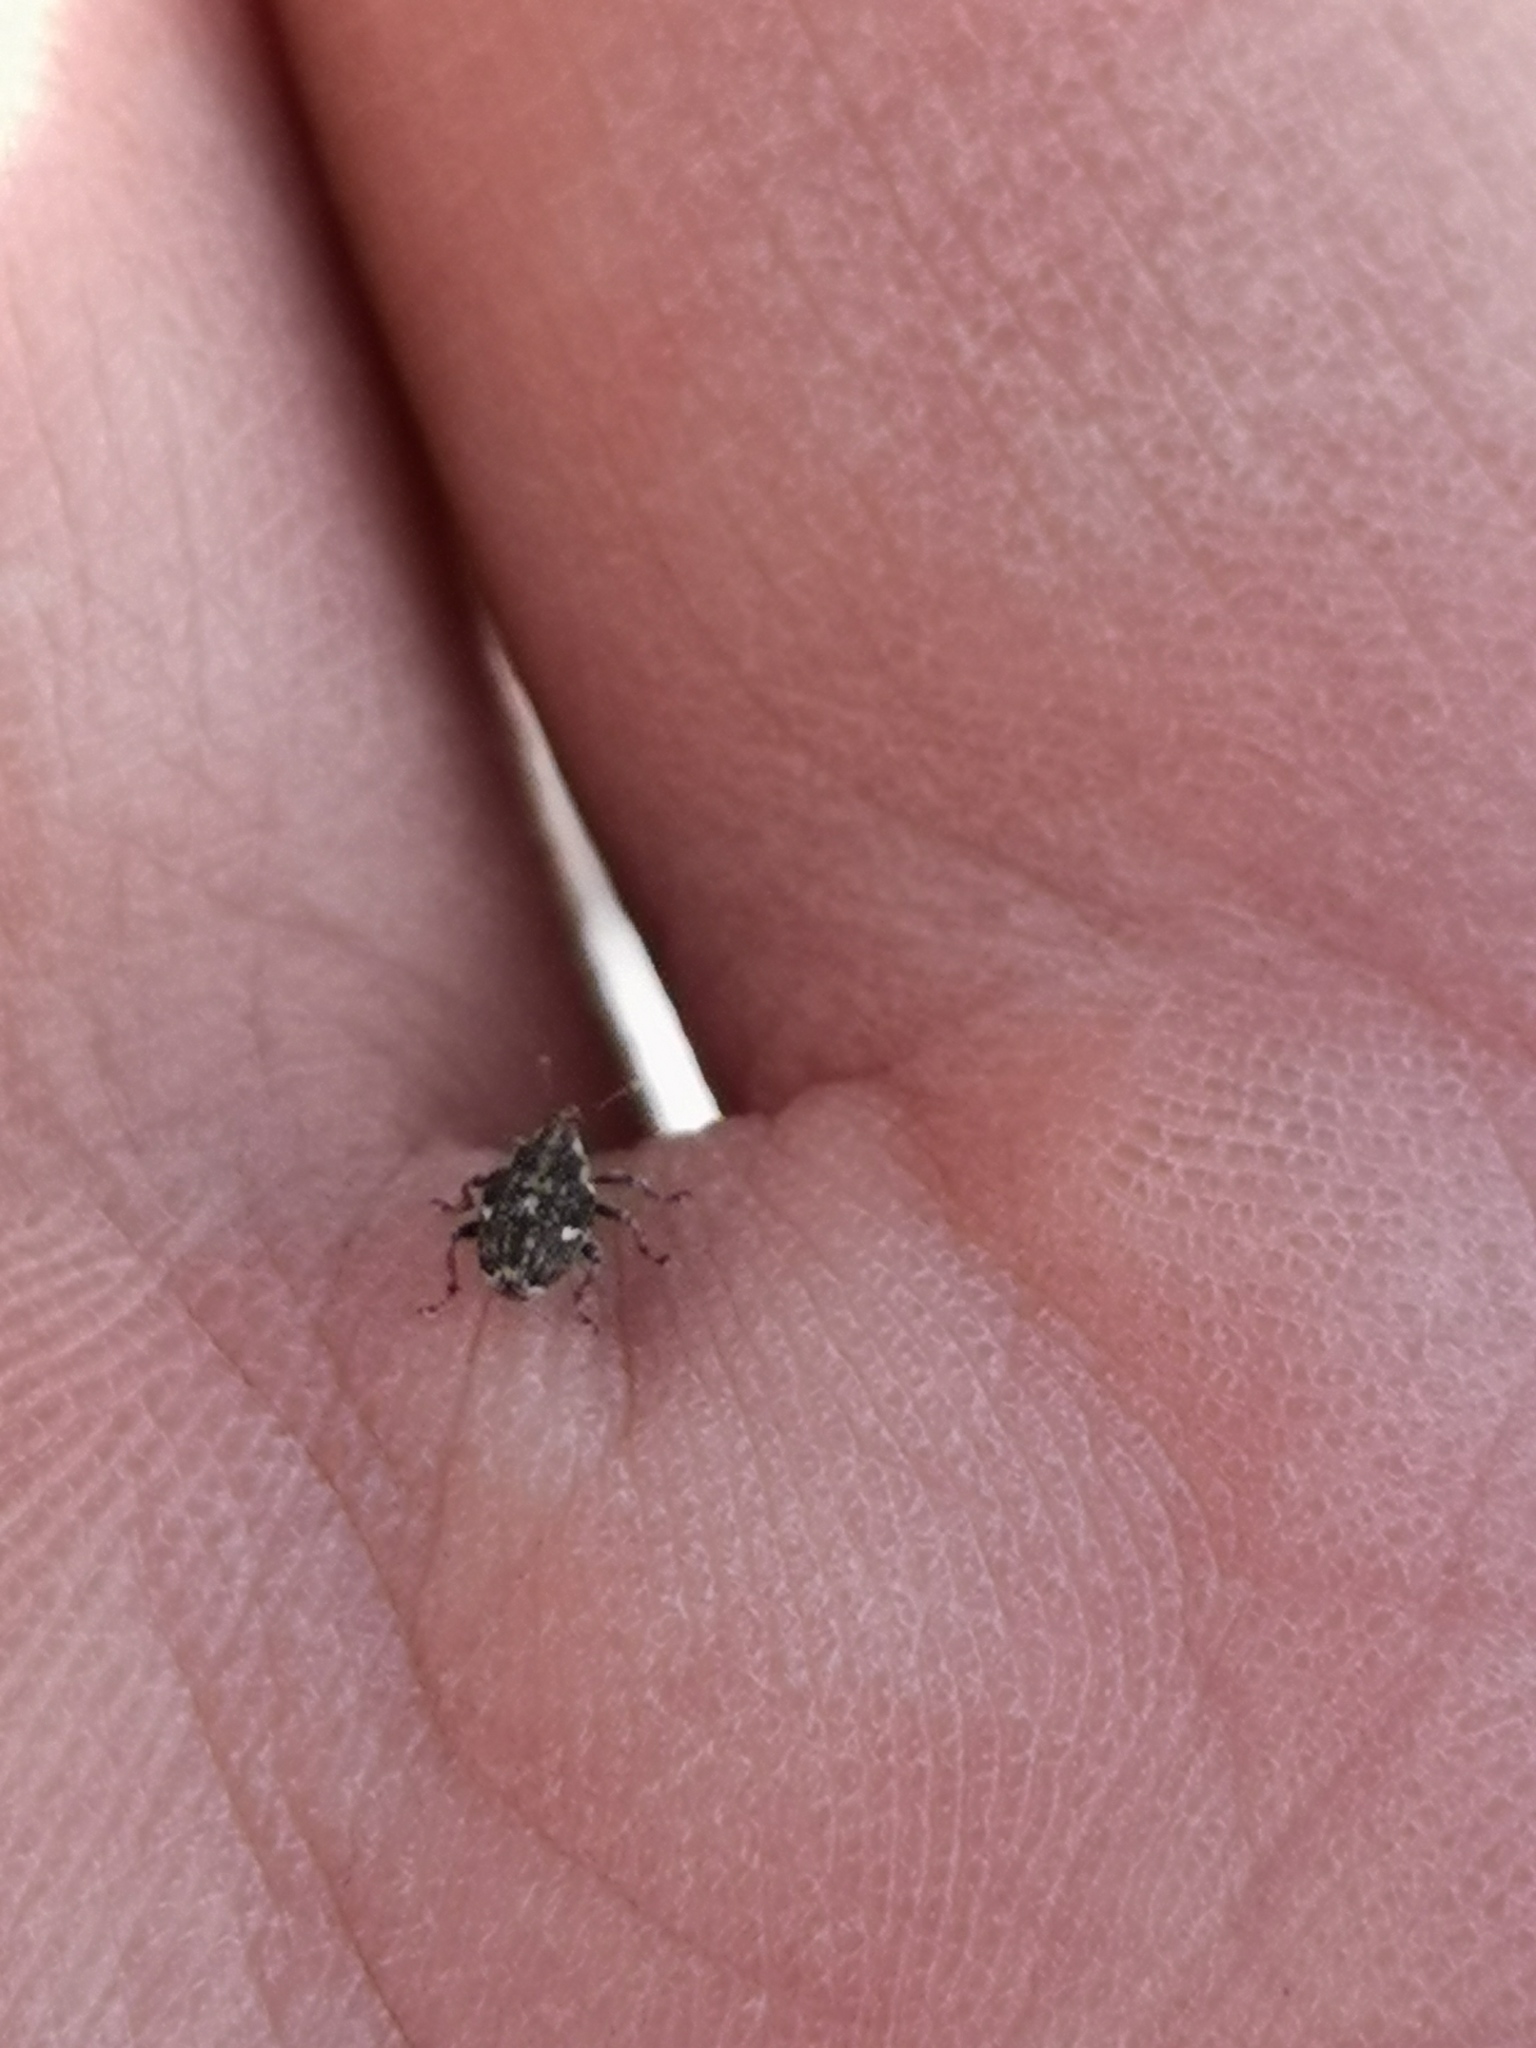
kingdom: Animalia
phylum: Arthropoda
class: Insecta
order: Coleoptera
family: Curculionidae
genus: Nedyus
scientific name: Nedyus quadrimaculatus
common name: Small nettle weevil
